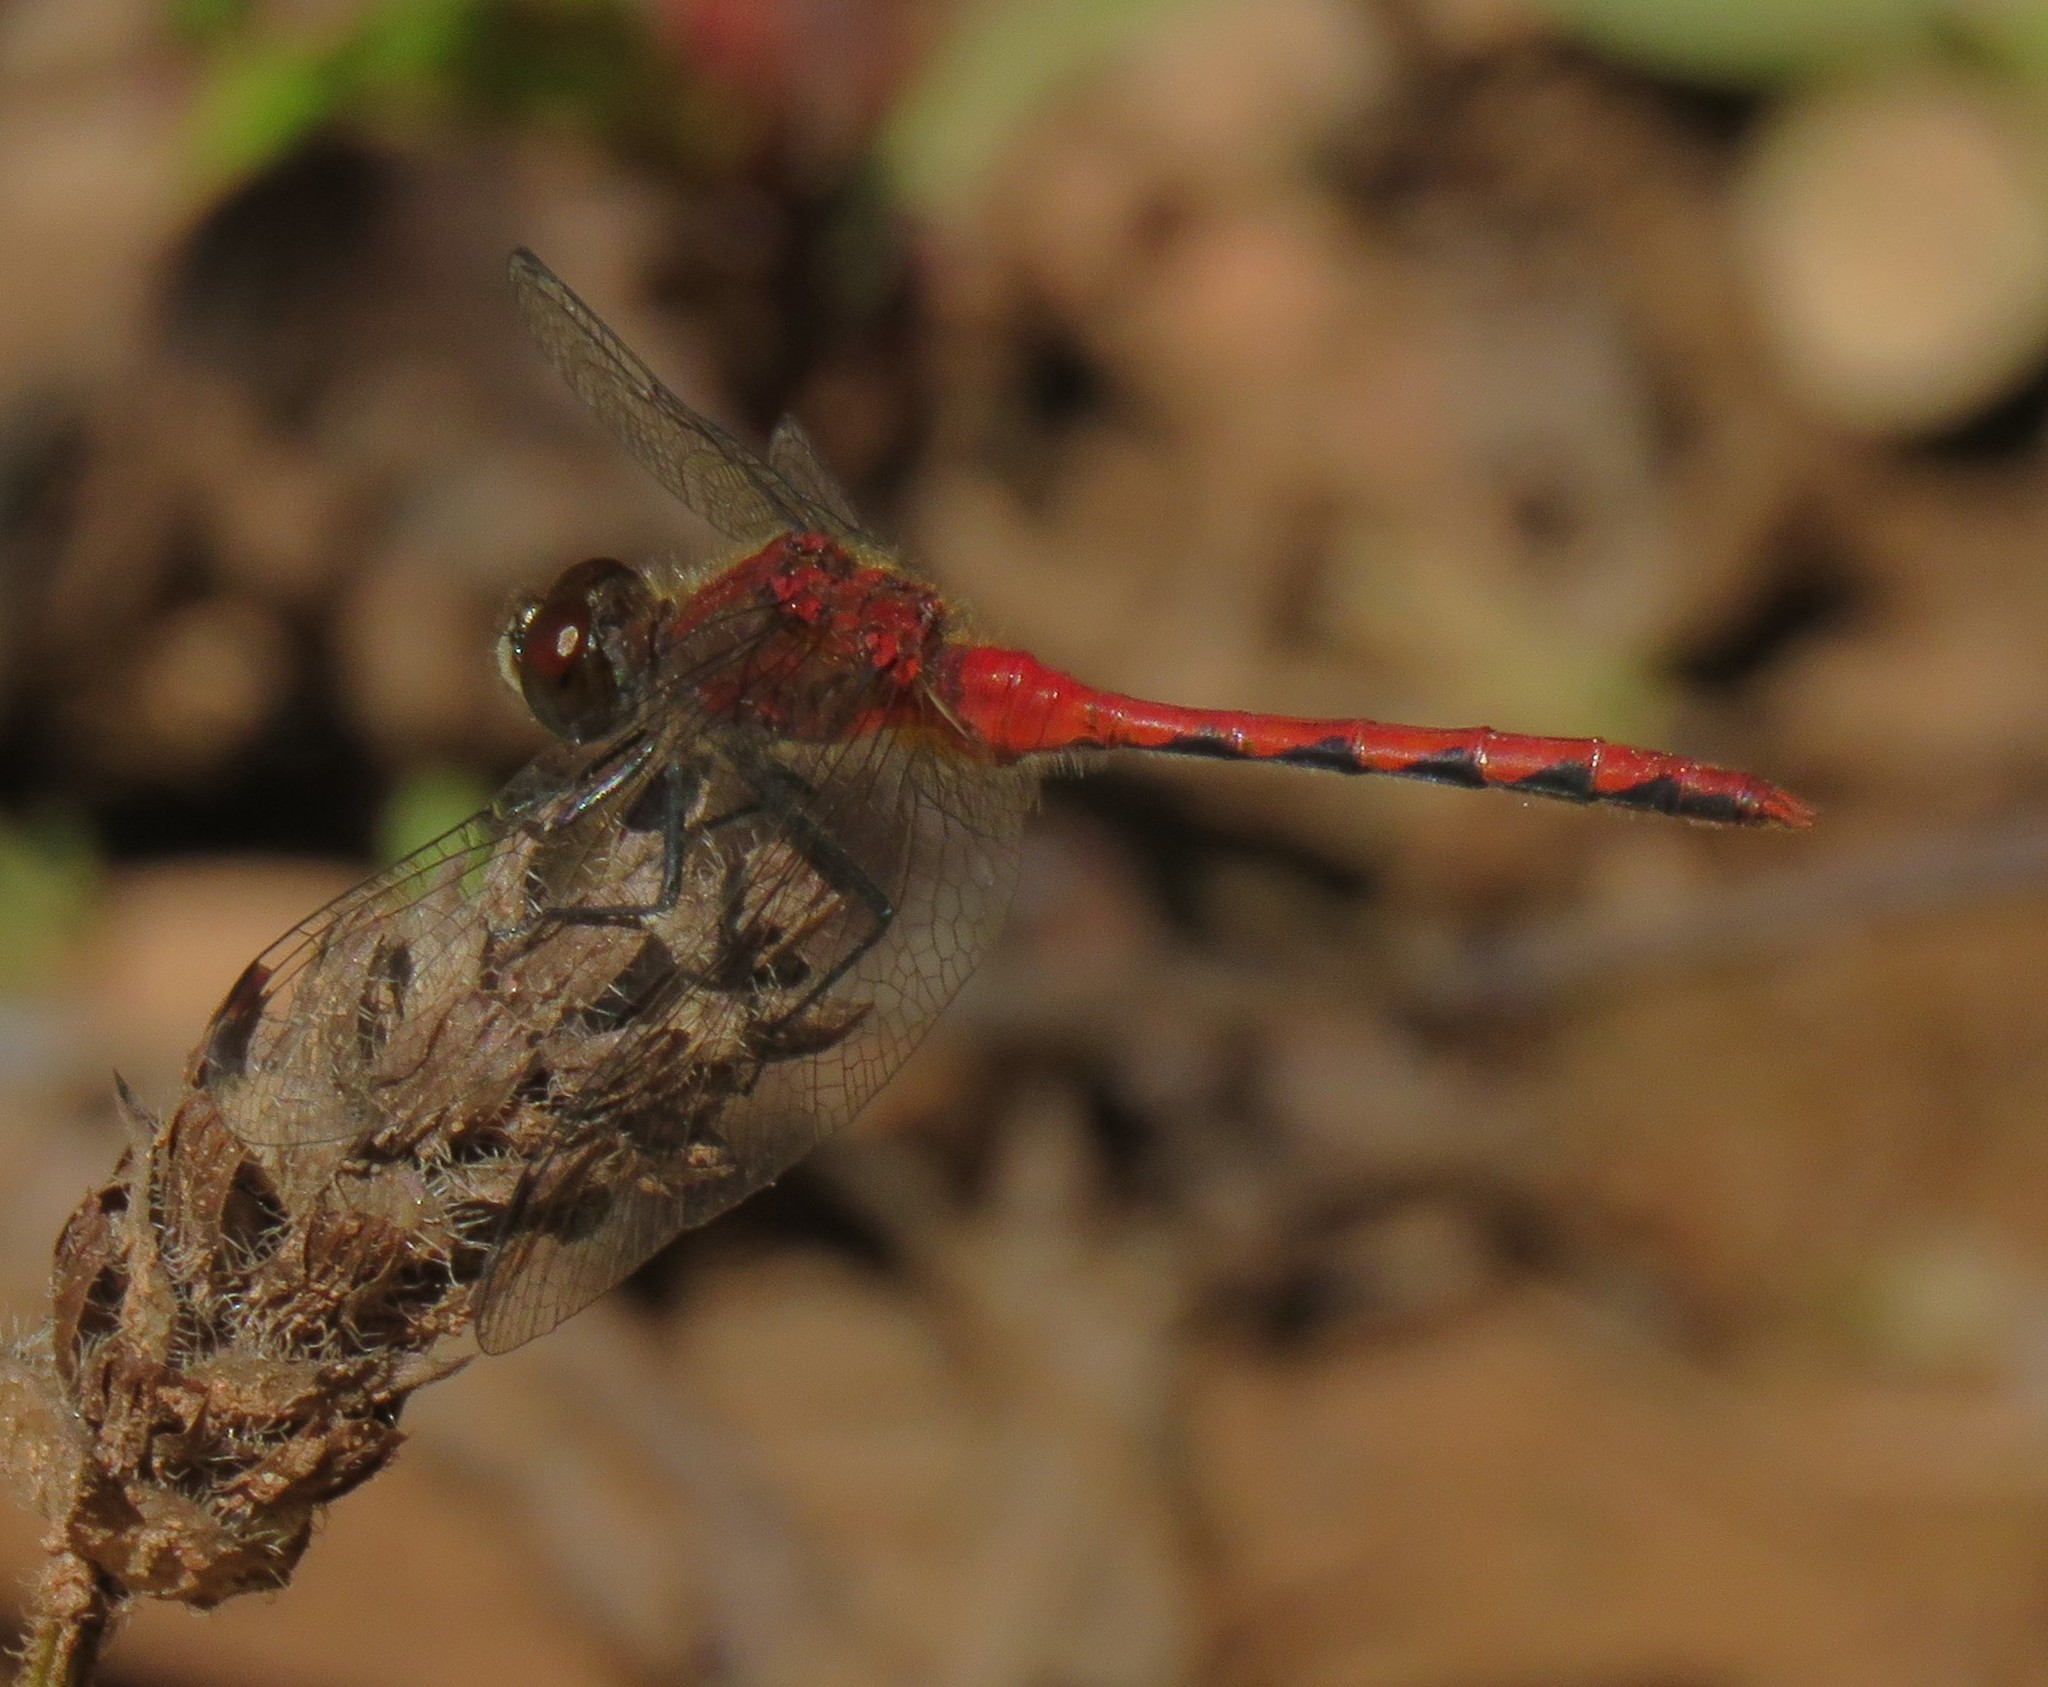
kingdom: Animalia
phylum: Arthropoda
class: Insecta
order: Odonata
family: Libellulidae
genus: Sympetrum
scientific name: Sympetrum obtrusum
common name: White-faced meadowhawk
